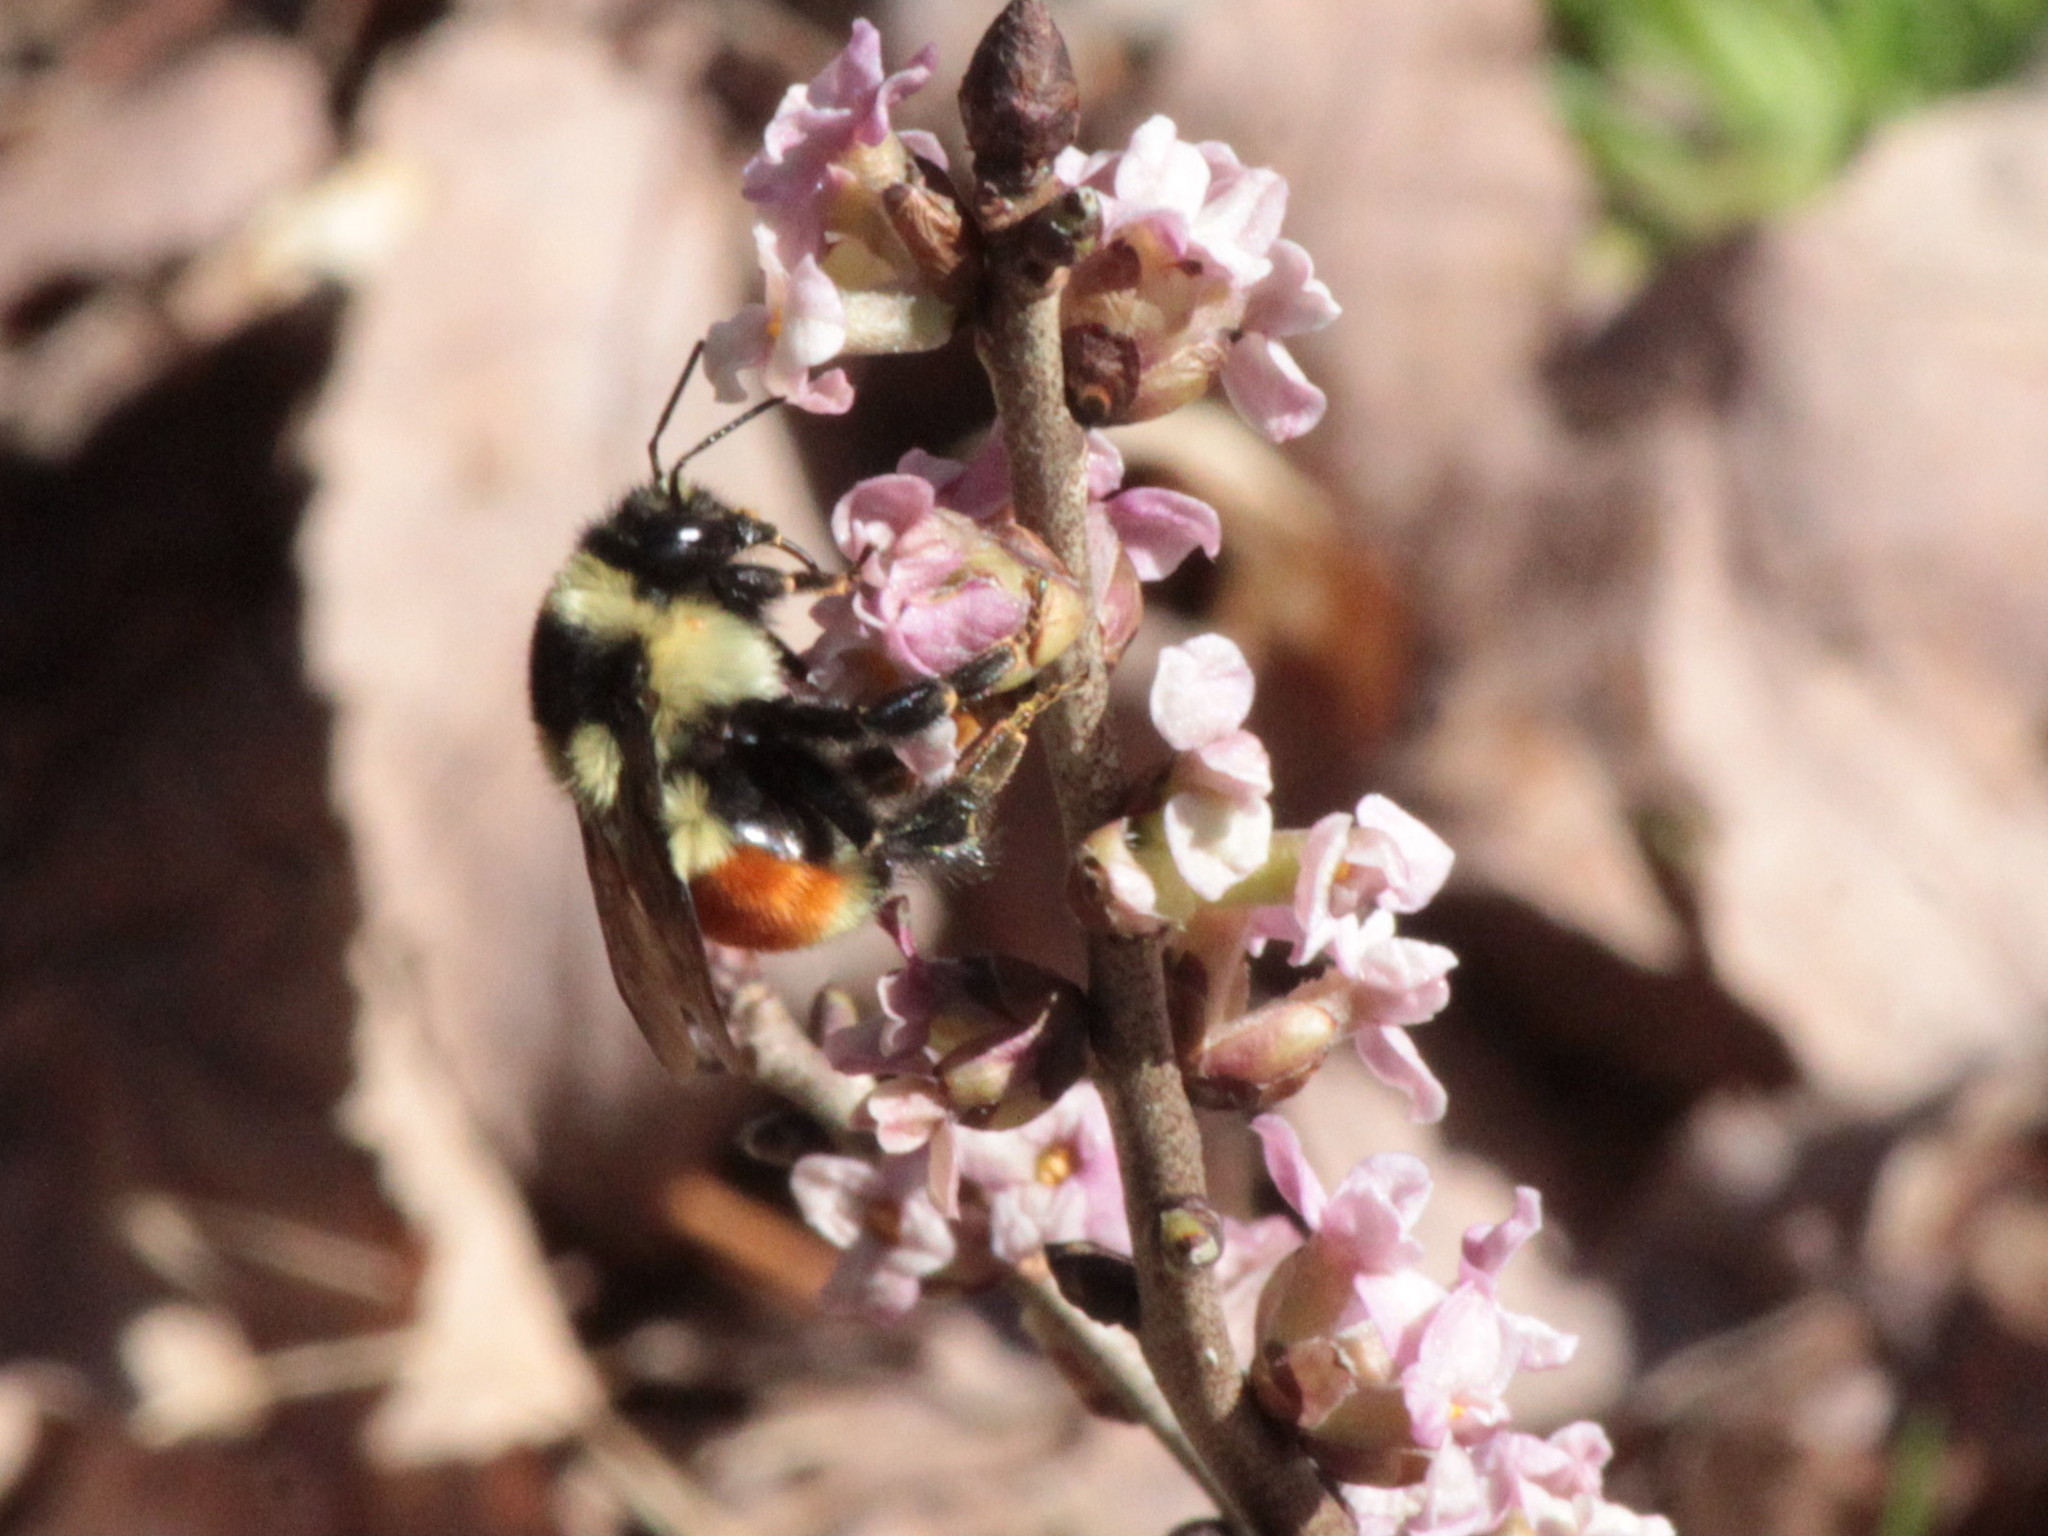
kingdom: Animalia
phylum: Arthropoda
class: Insecta
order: Hymenoptera
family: Apidae
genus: Bombus
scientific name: Bombus ternarius
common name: Tri-colored bumble bee
